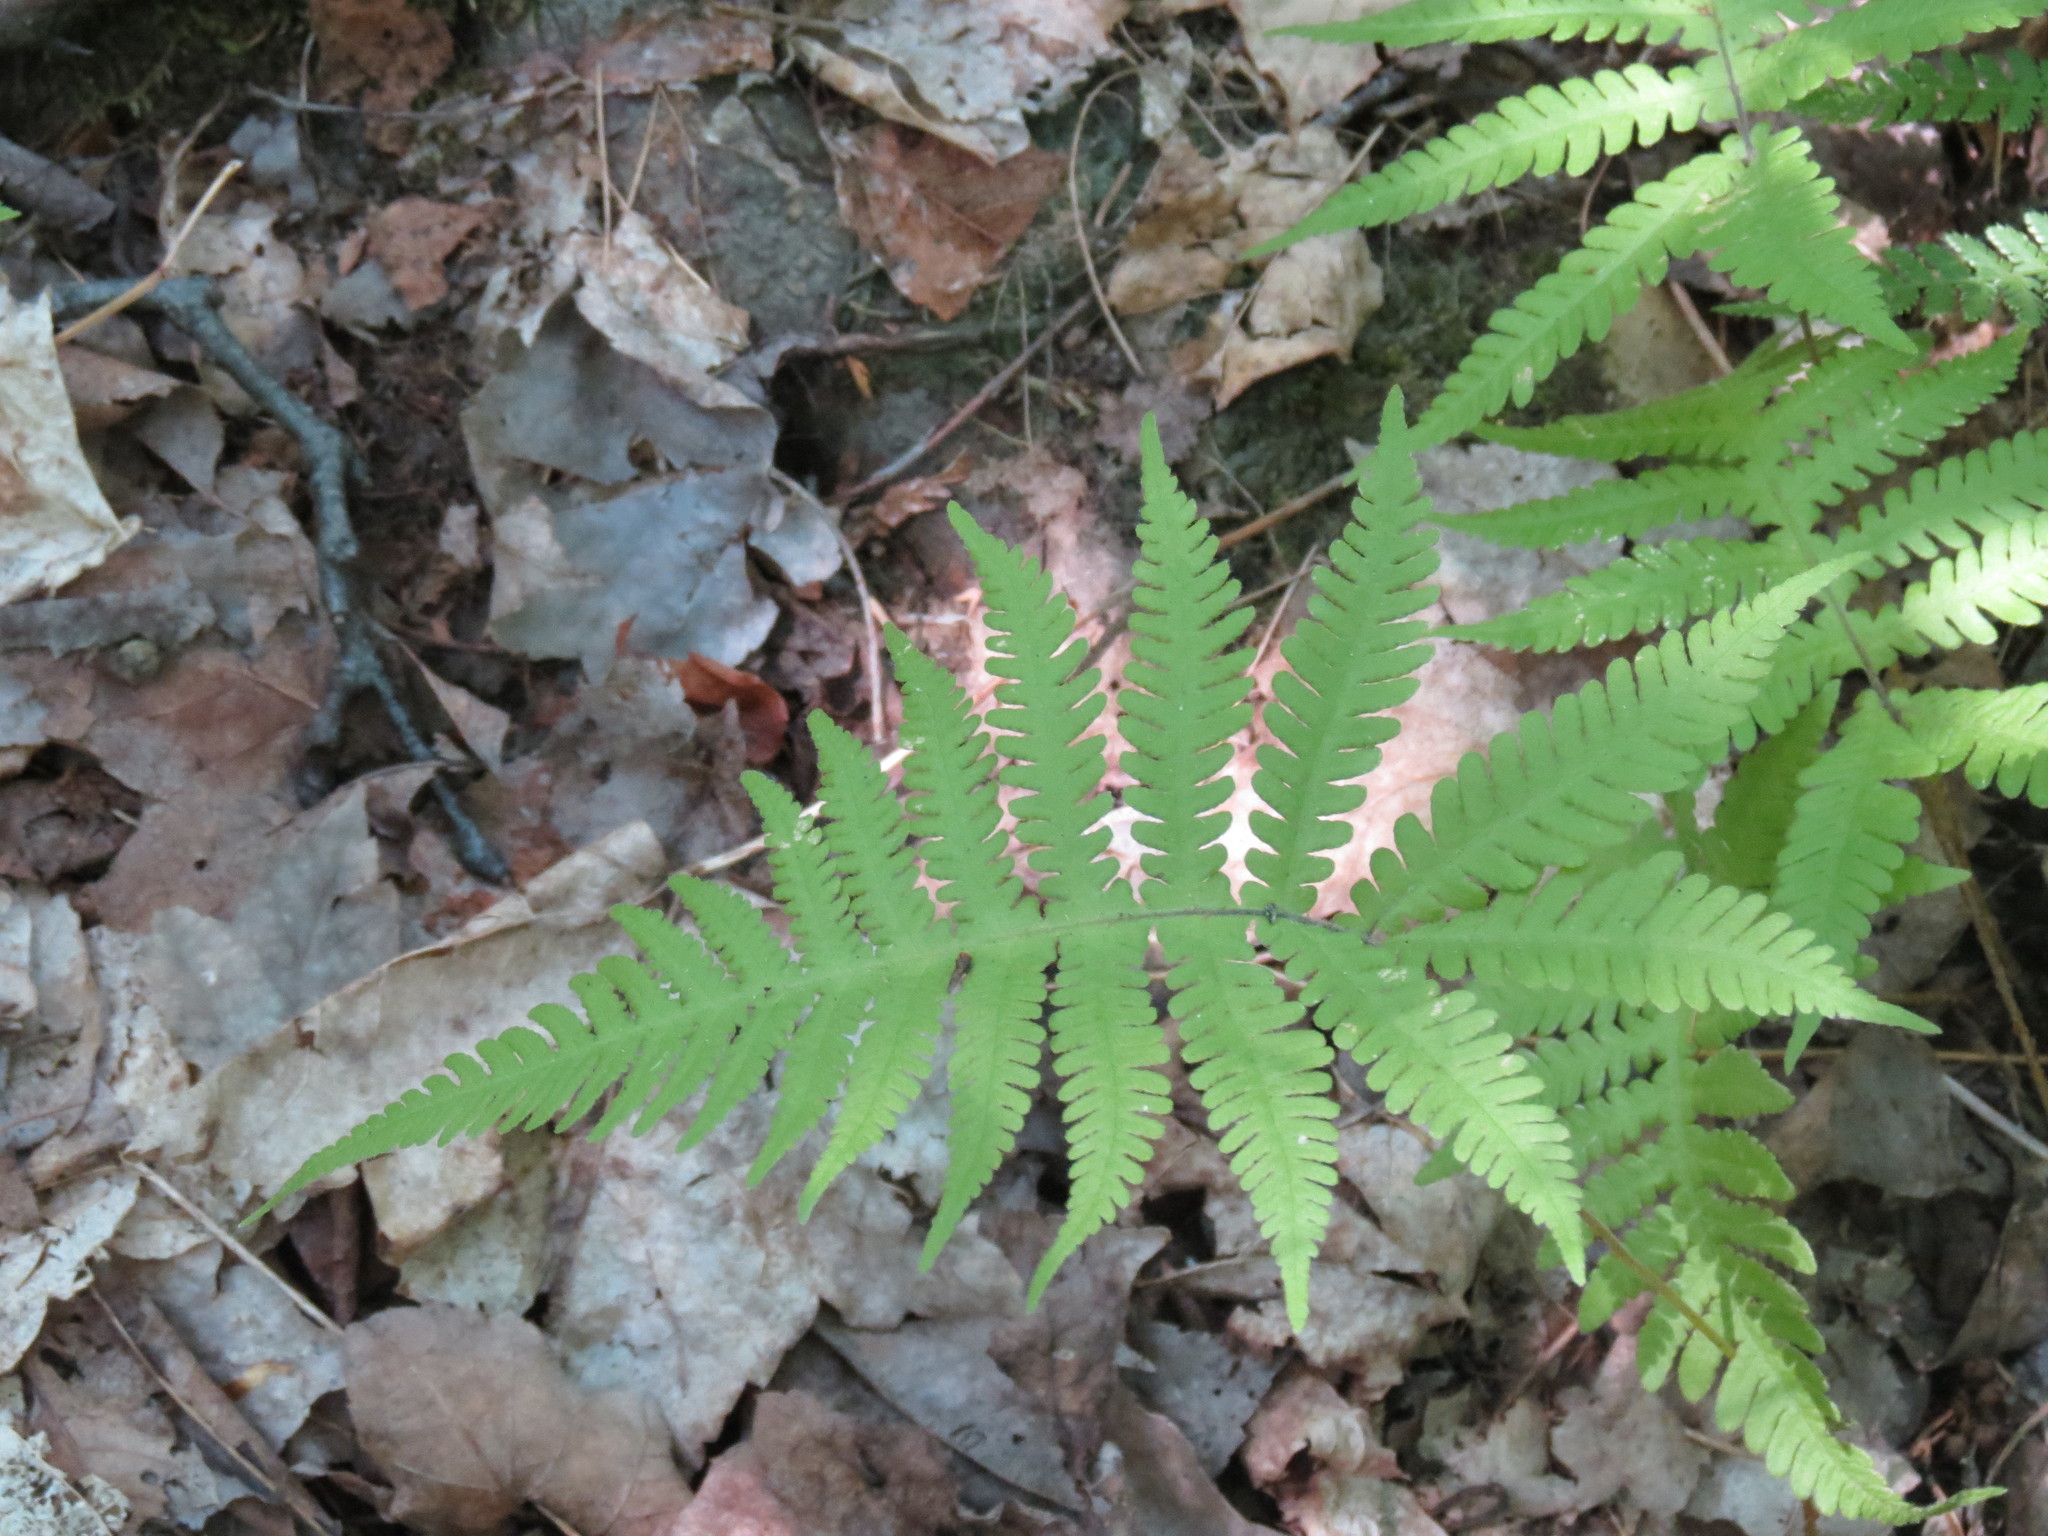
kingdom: Plantae
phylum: Tracheophyta
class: Polypodiopsida
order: Polypodiales
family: Thelypteridaceae
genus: Phegopteris
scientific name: Phegopteris connectilis
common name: Beech fern
